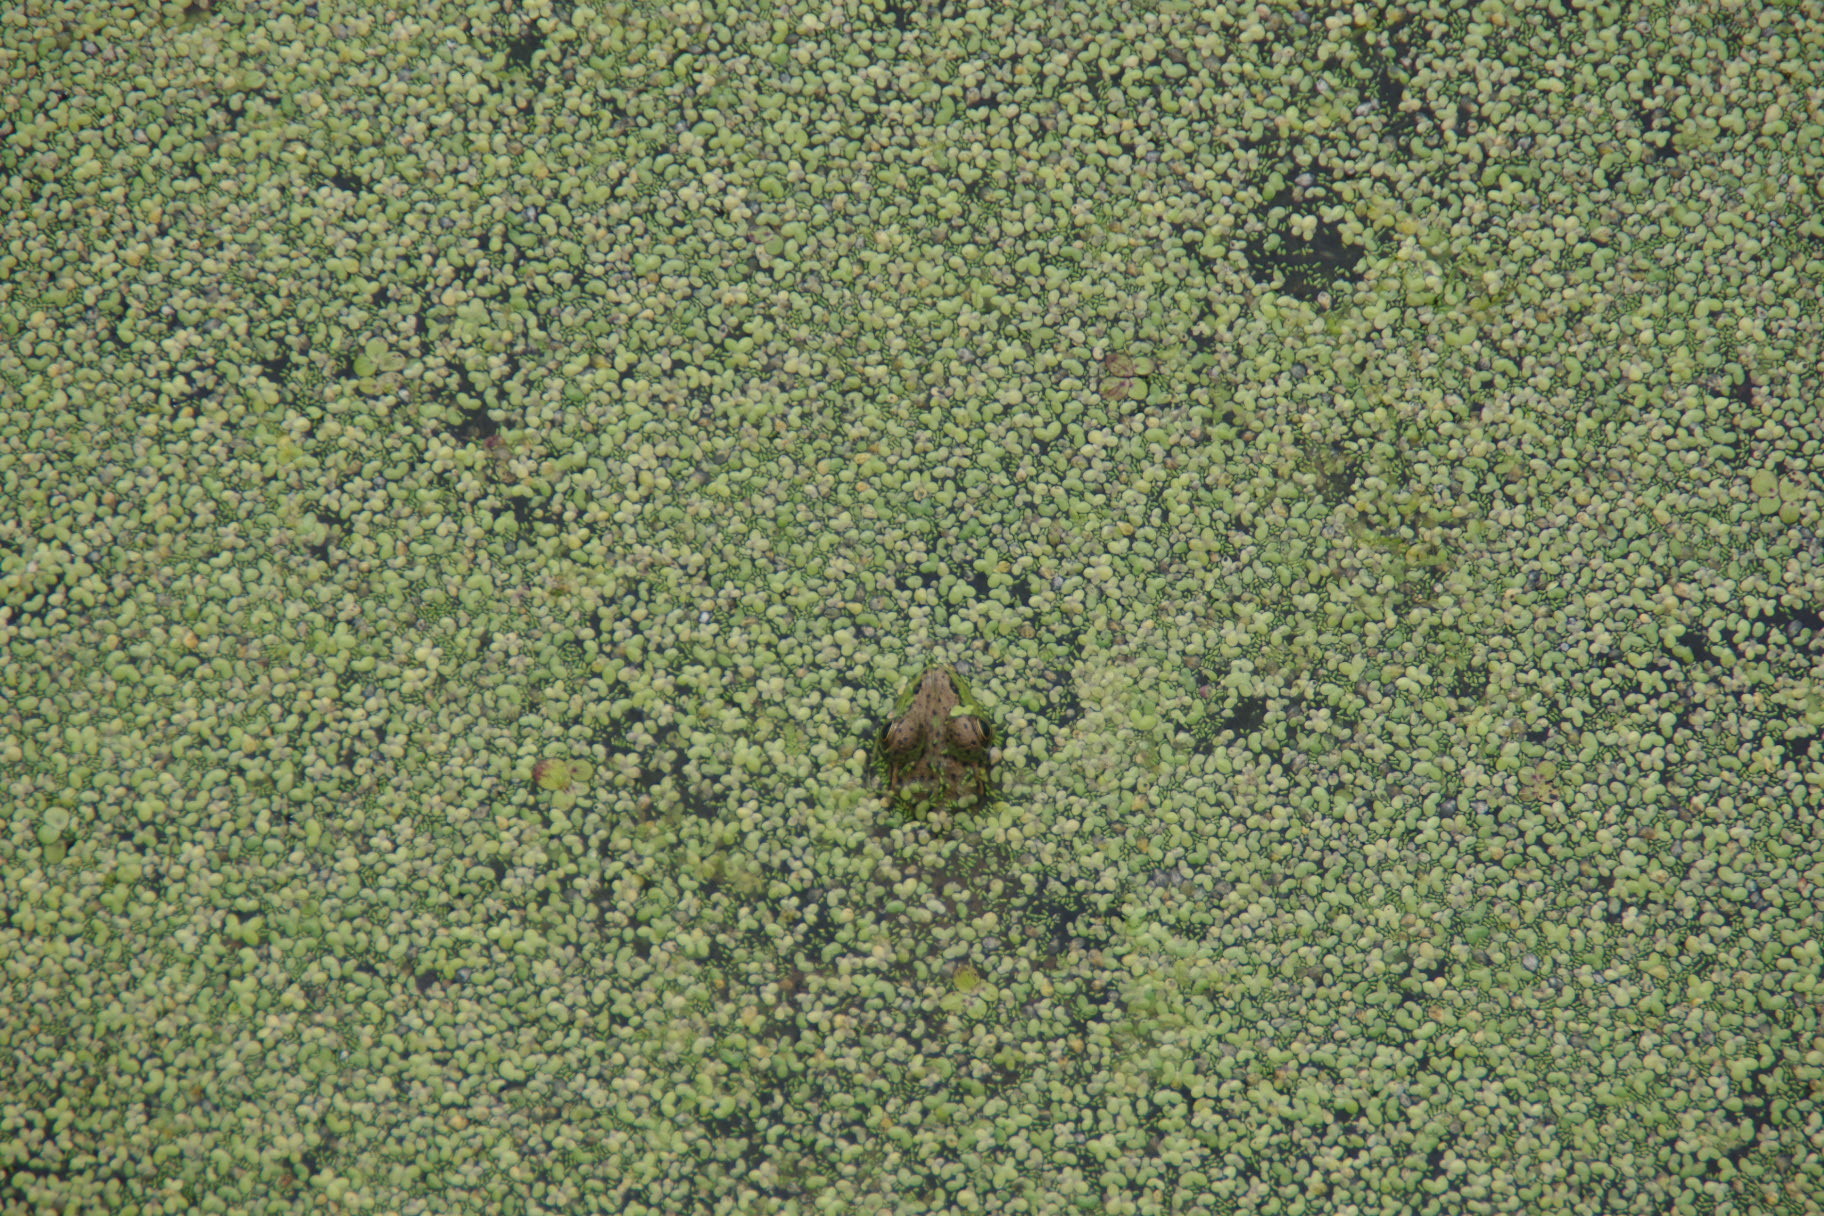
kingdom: Animalia
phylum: Chordata
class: Amphibia
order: Anura
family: Ranidae
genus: Lithobates
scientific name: Lithobates clamitans
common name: Green frog
